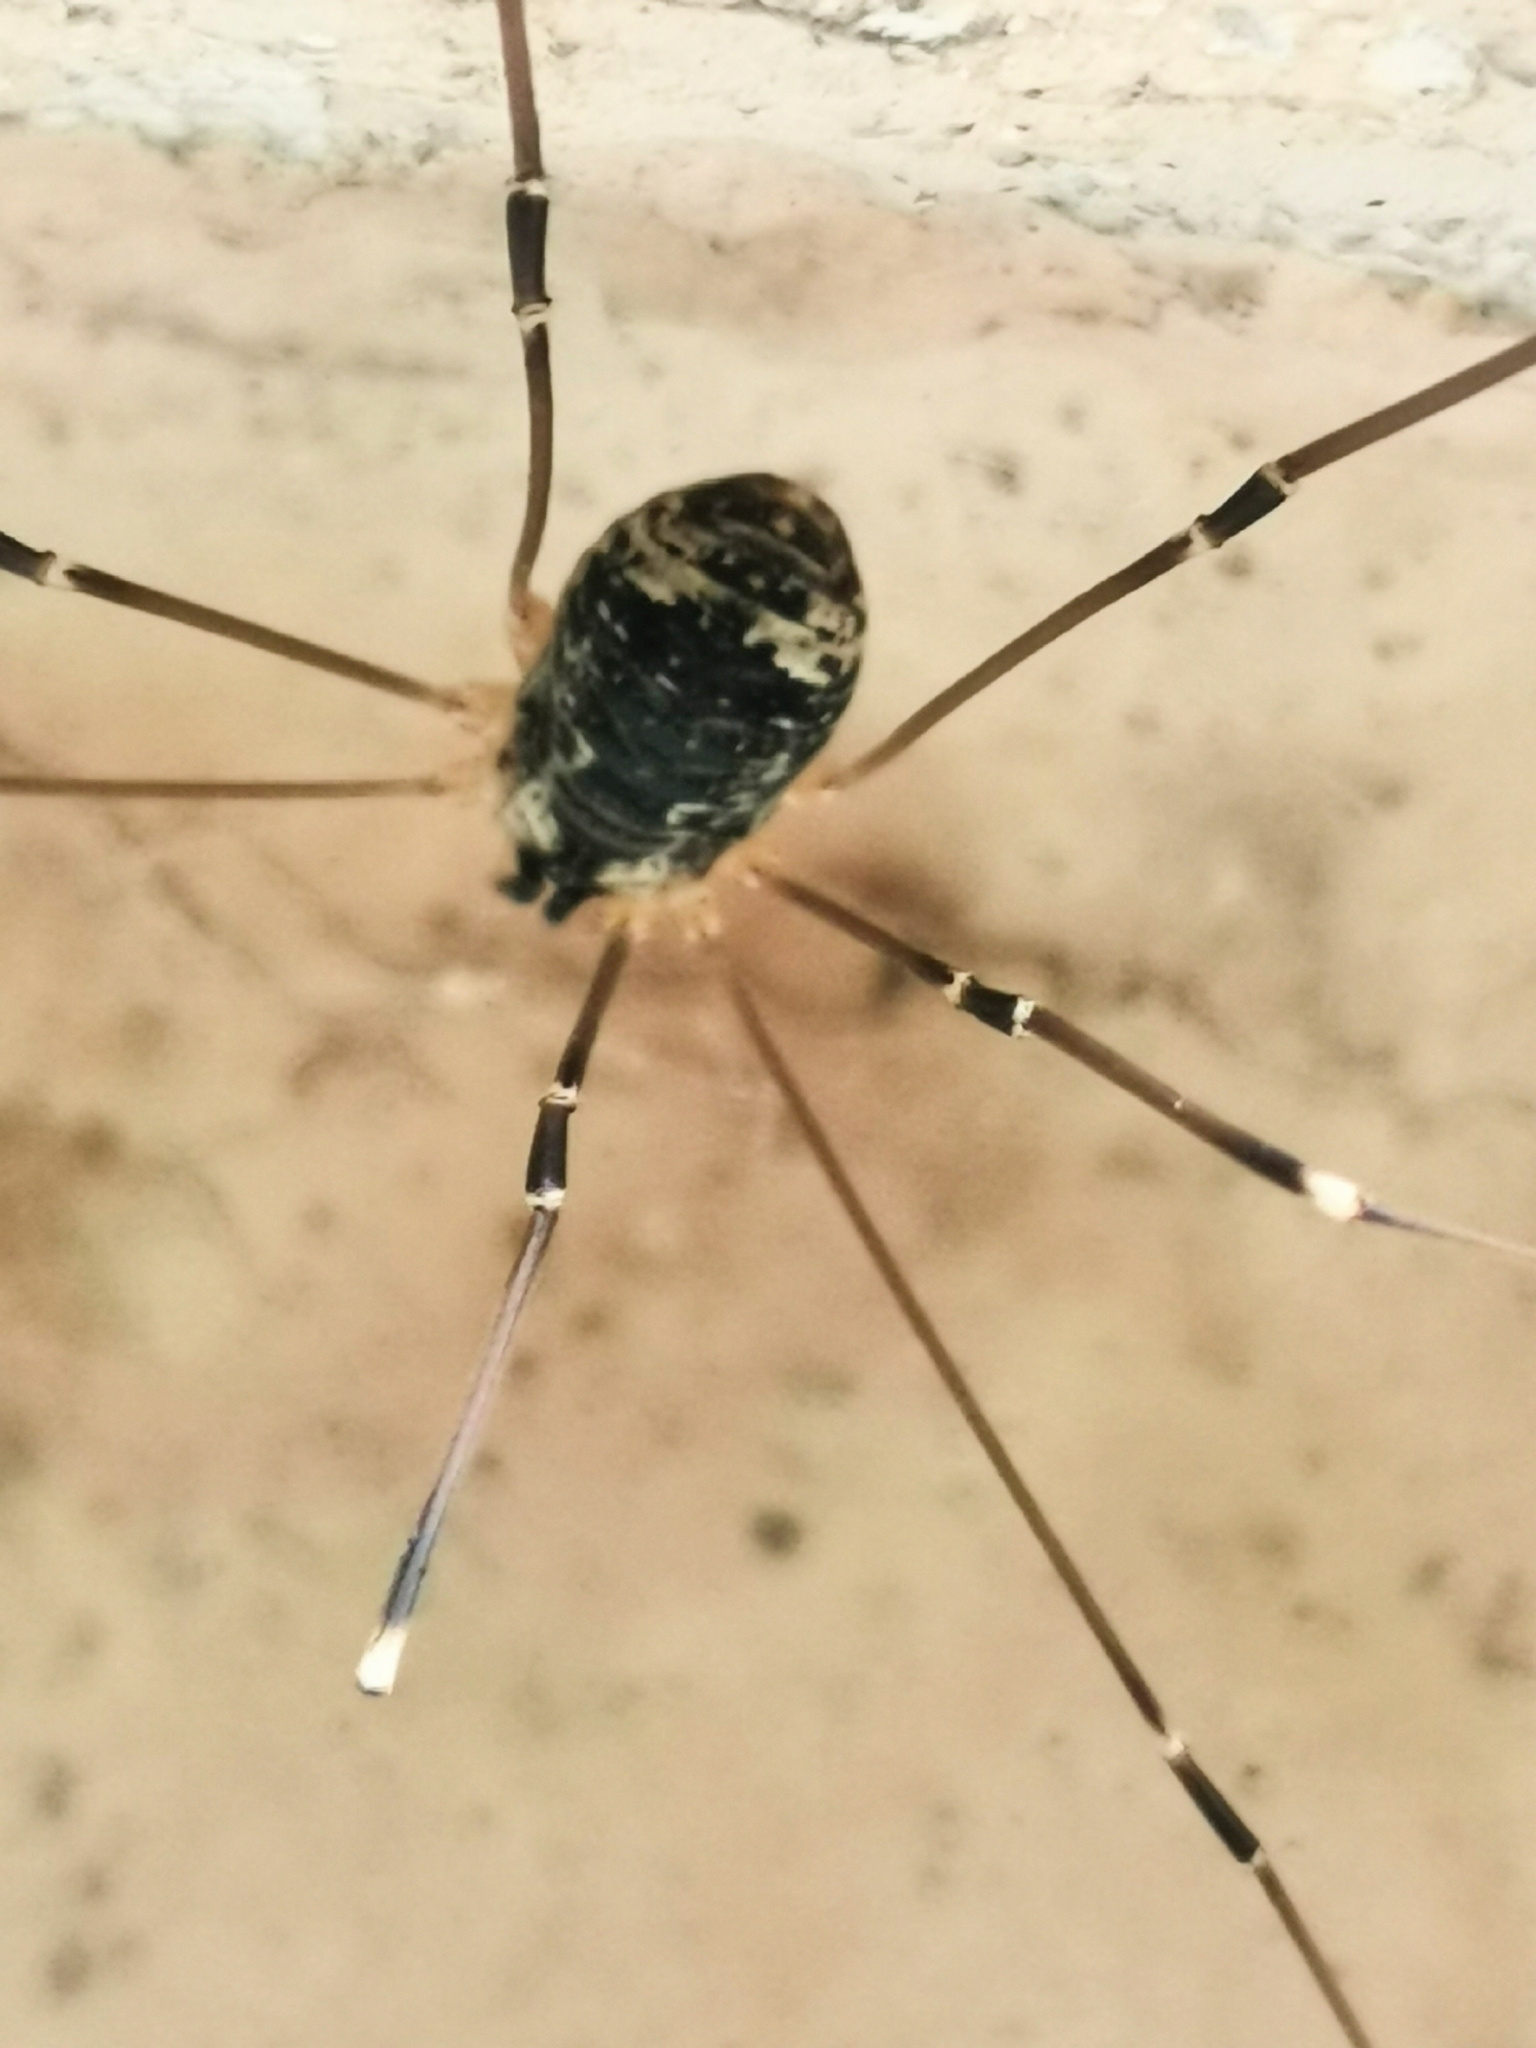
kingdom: Animalia
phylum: Arthropoda
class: Arachnida
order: Opiliones
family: Sclerosomatidae
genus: Leiobunum
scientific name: Leiobunum gracile
